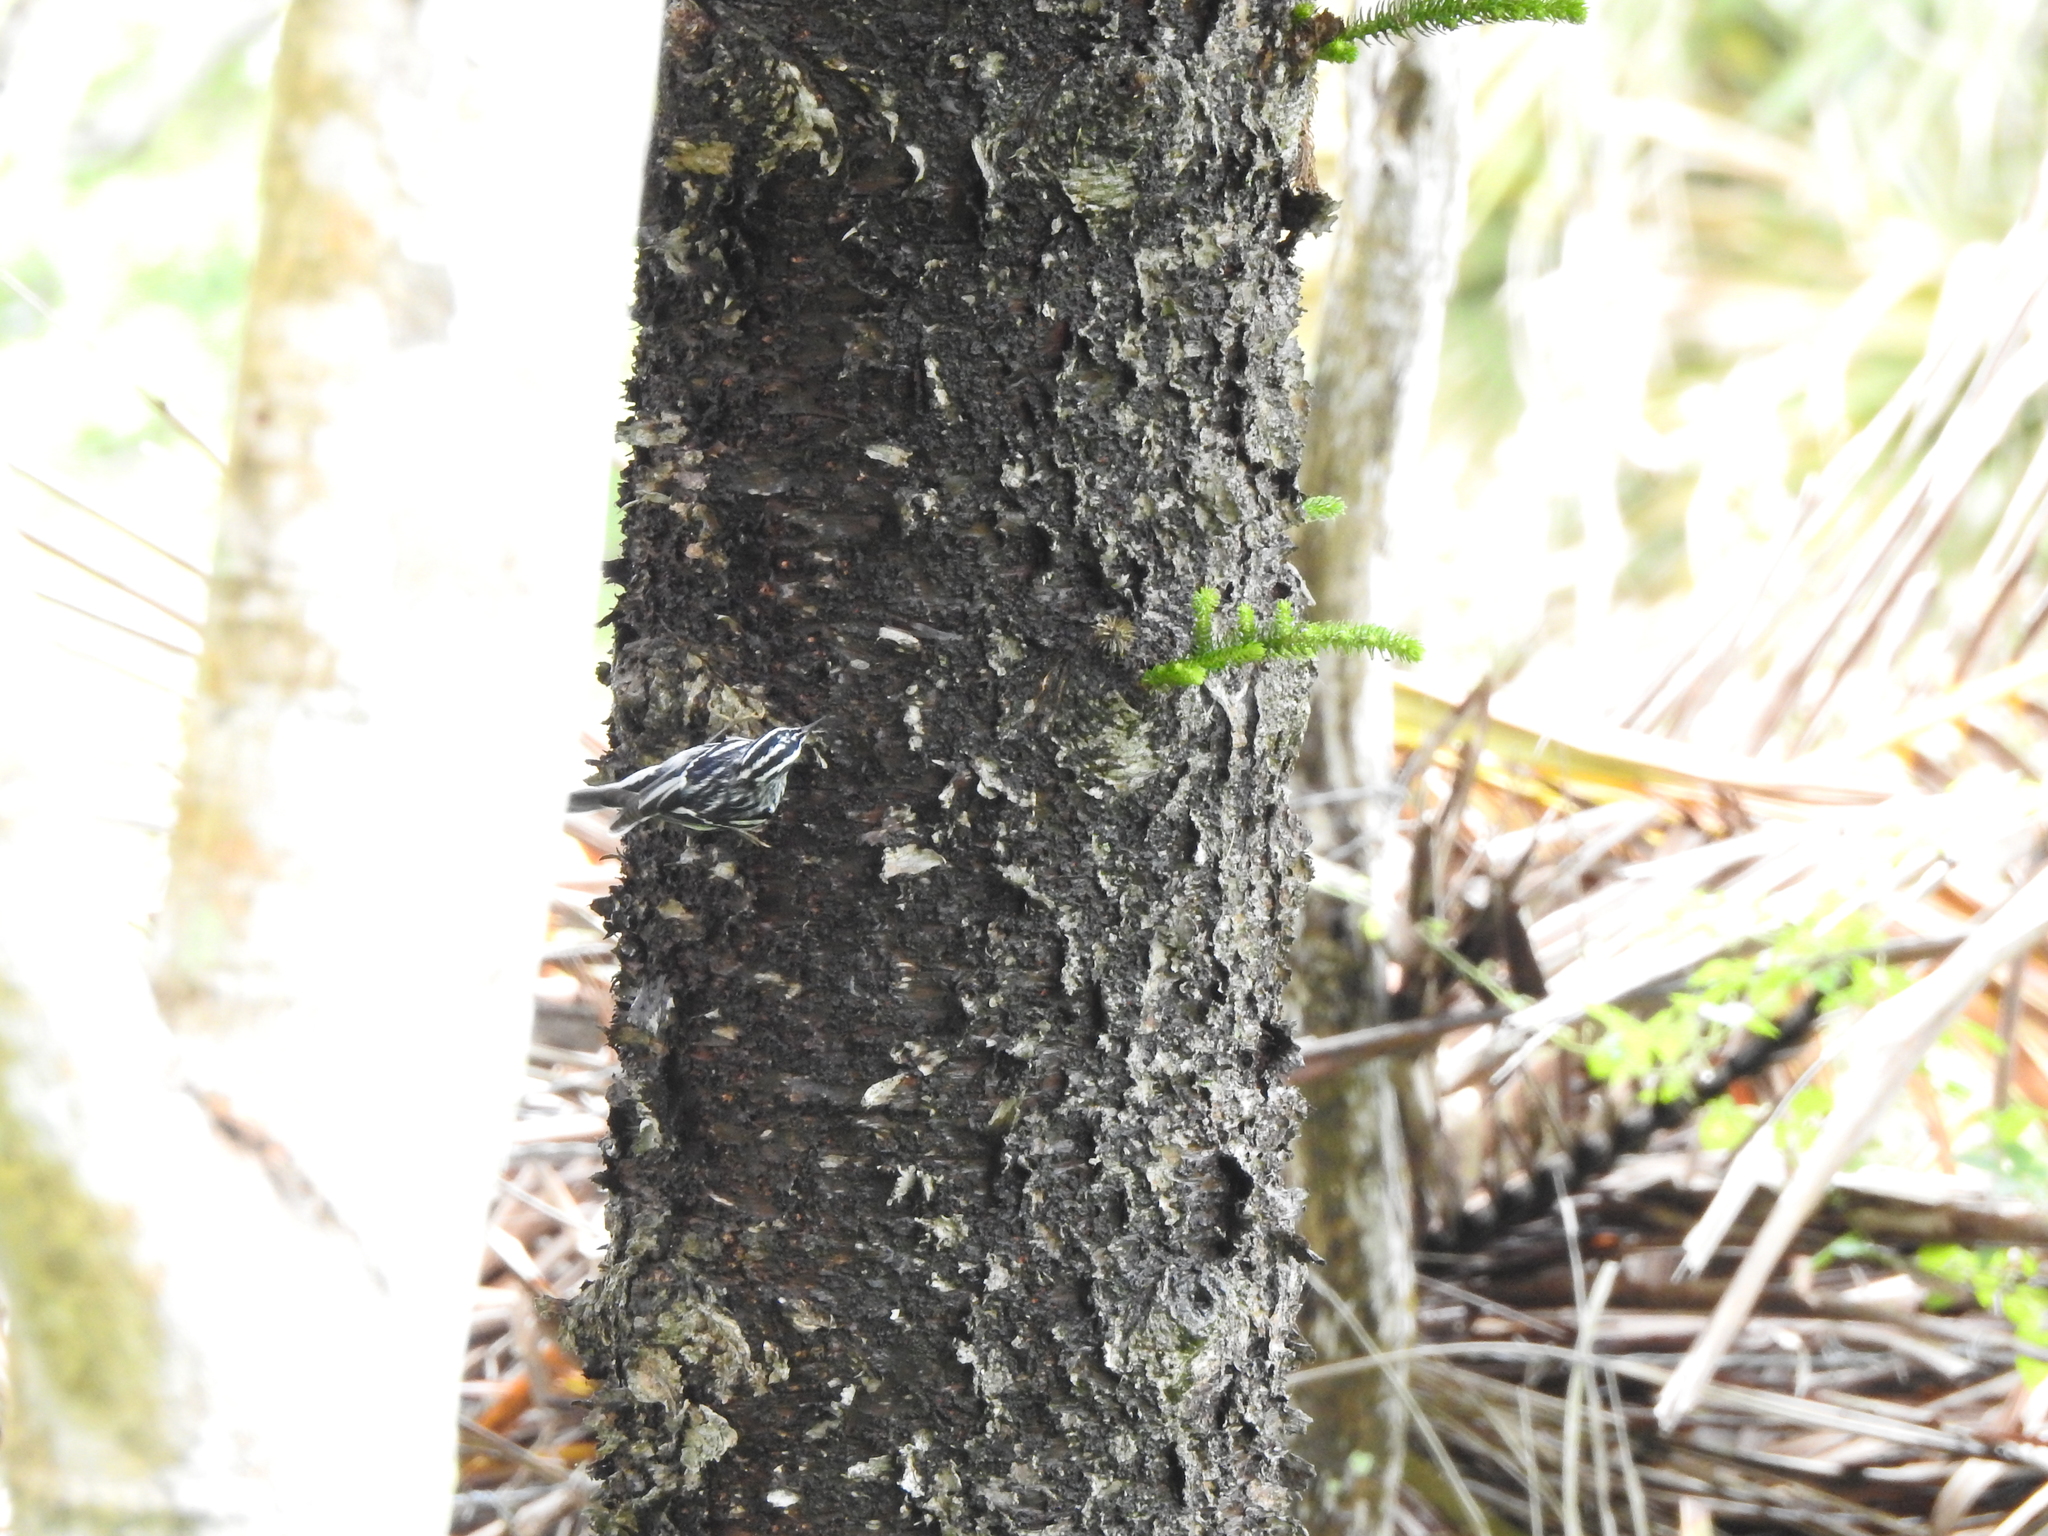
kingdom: Animalia
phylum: Chordata
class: Aves
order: Passeriformes
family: Parulidae
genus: Mniotilta
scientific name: Mniotilta varia
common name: Black-and-white warbler
